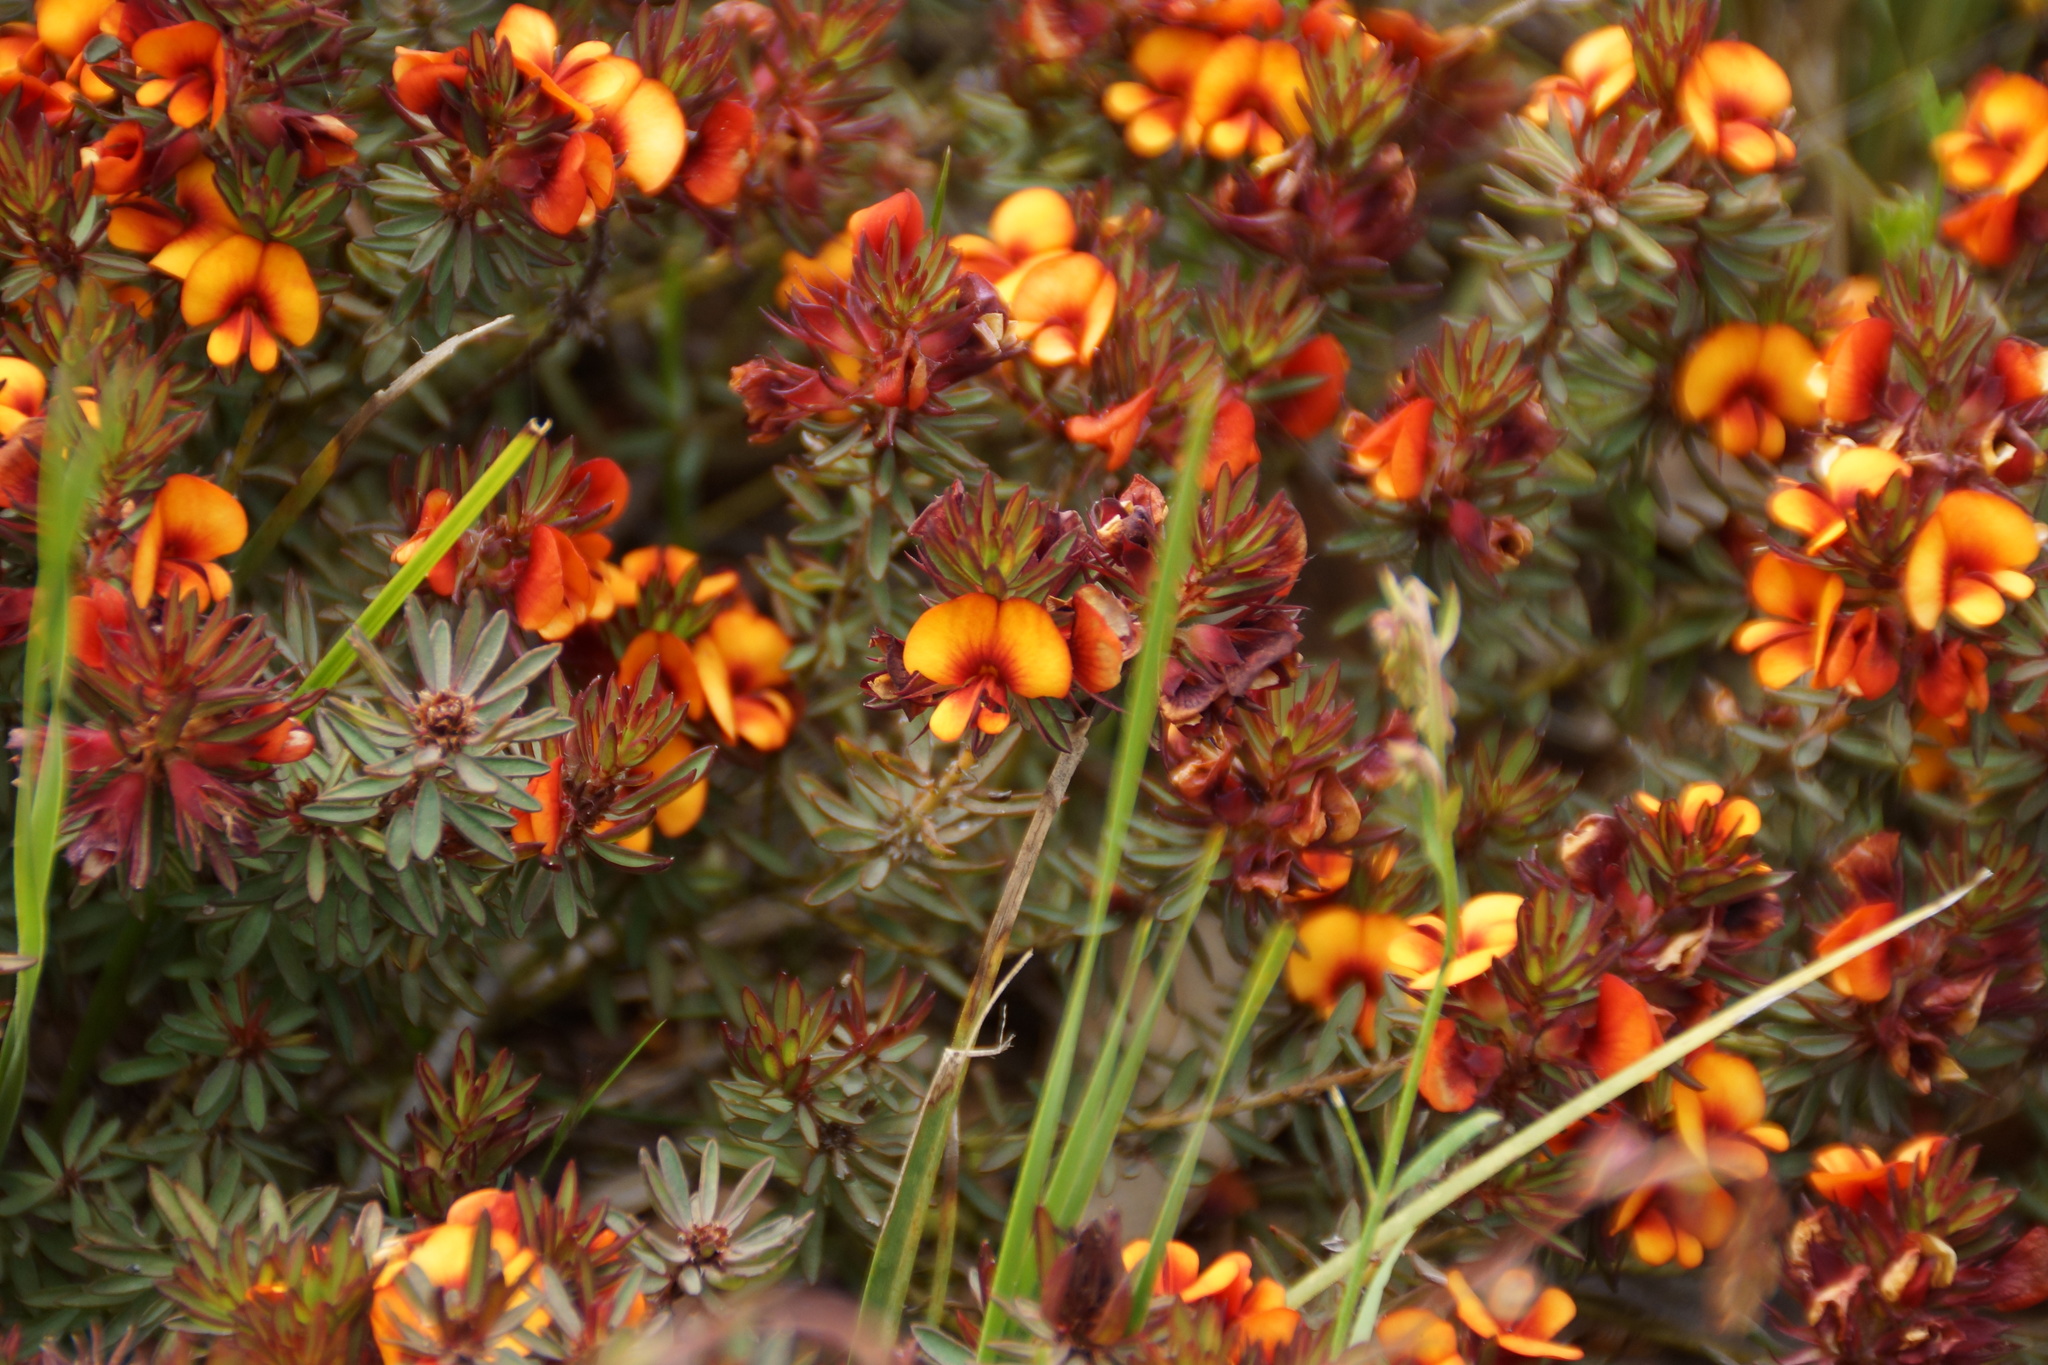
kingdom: Plantae
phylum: Tracheophyta
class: Magnoliopsida
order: Fabales
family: Fabaceae
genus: Pultenaea
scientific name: Pultenaea humilis
